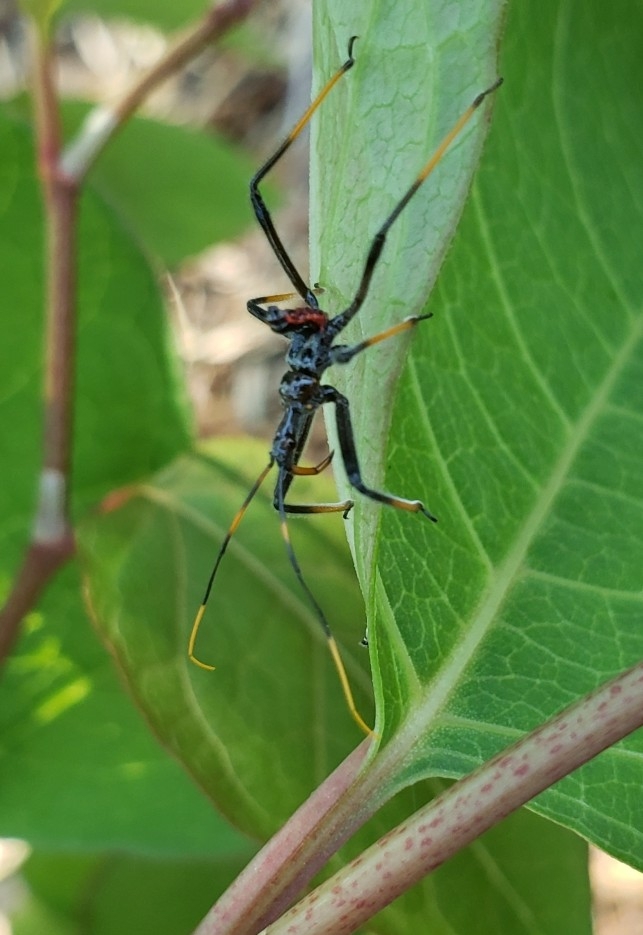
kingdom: Animalia
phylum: Arthropoda
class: Insecta
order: Hemiptera
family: Reduviidae
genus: Arilus
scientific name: Arilus cristatus
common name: North american wheel bug
